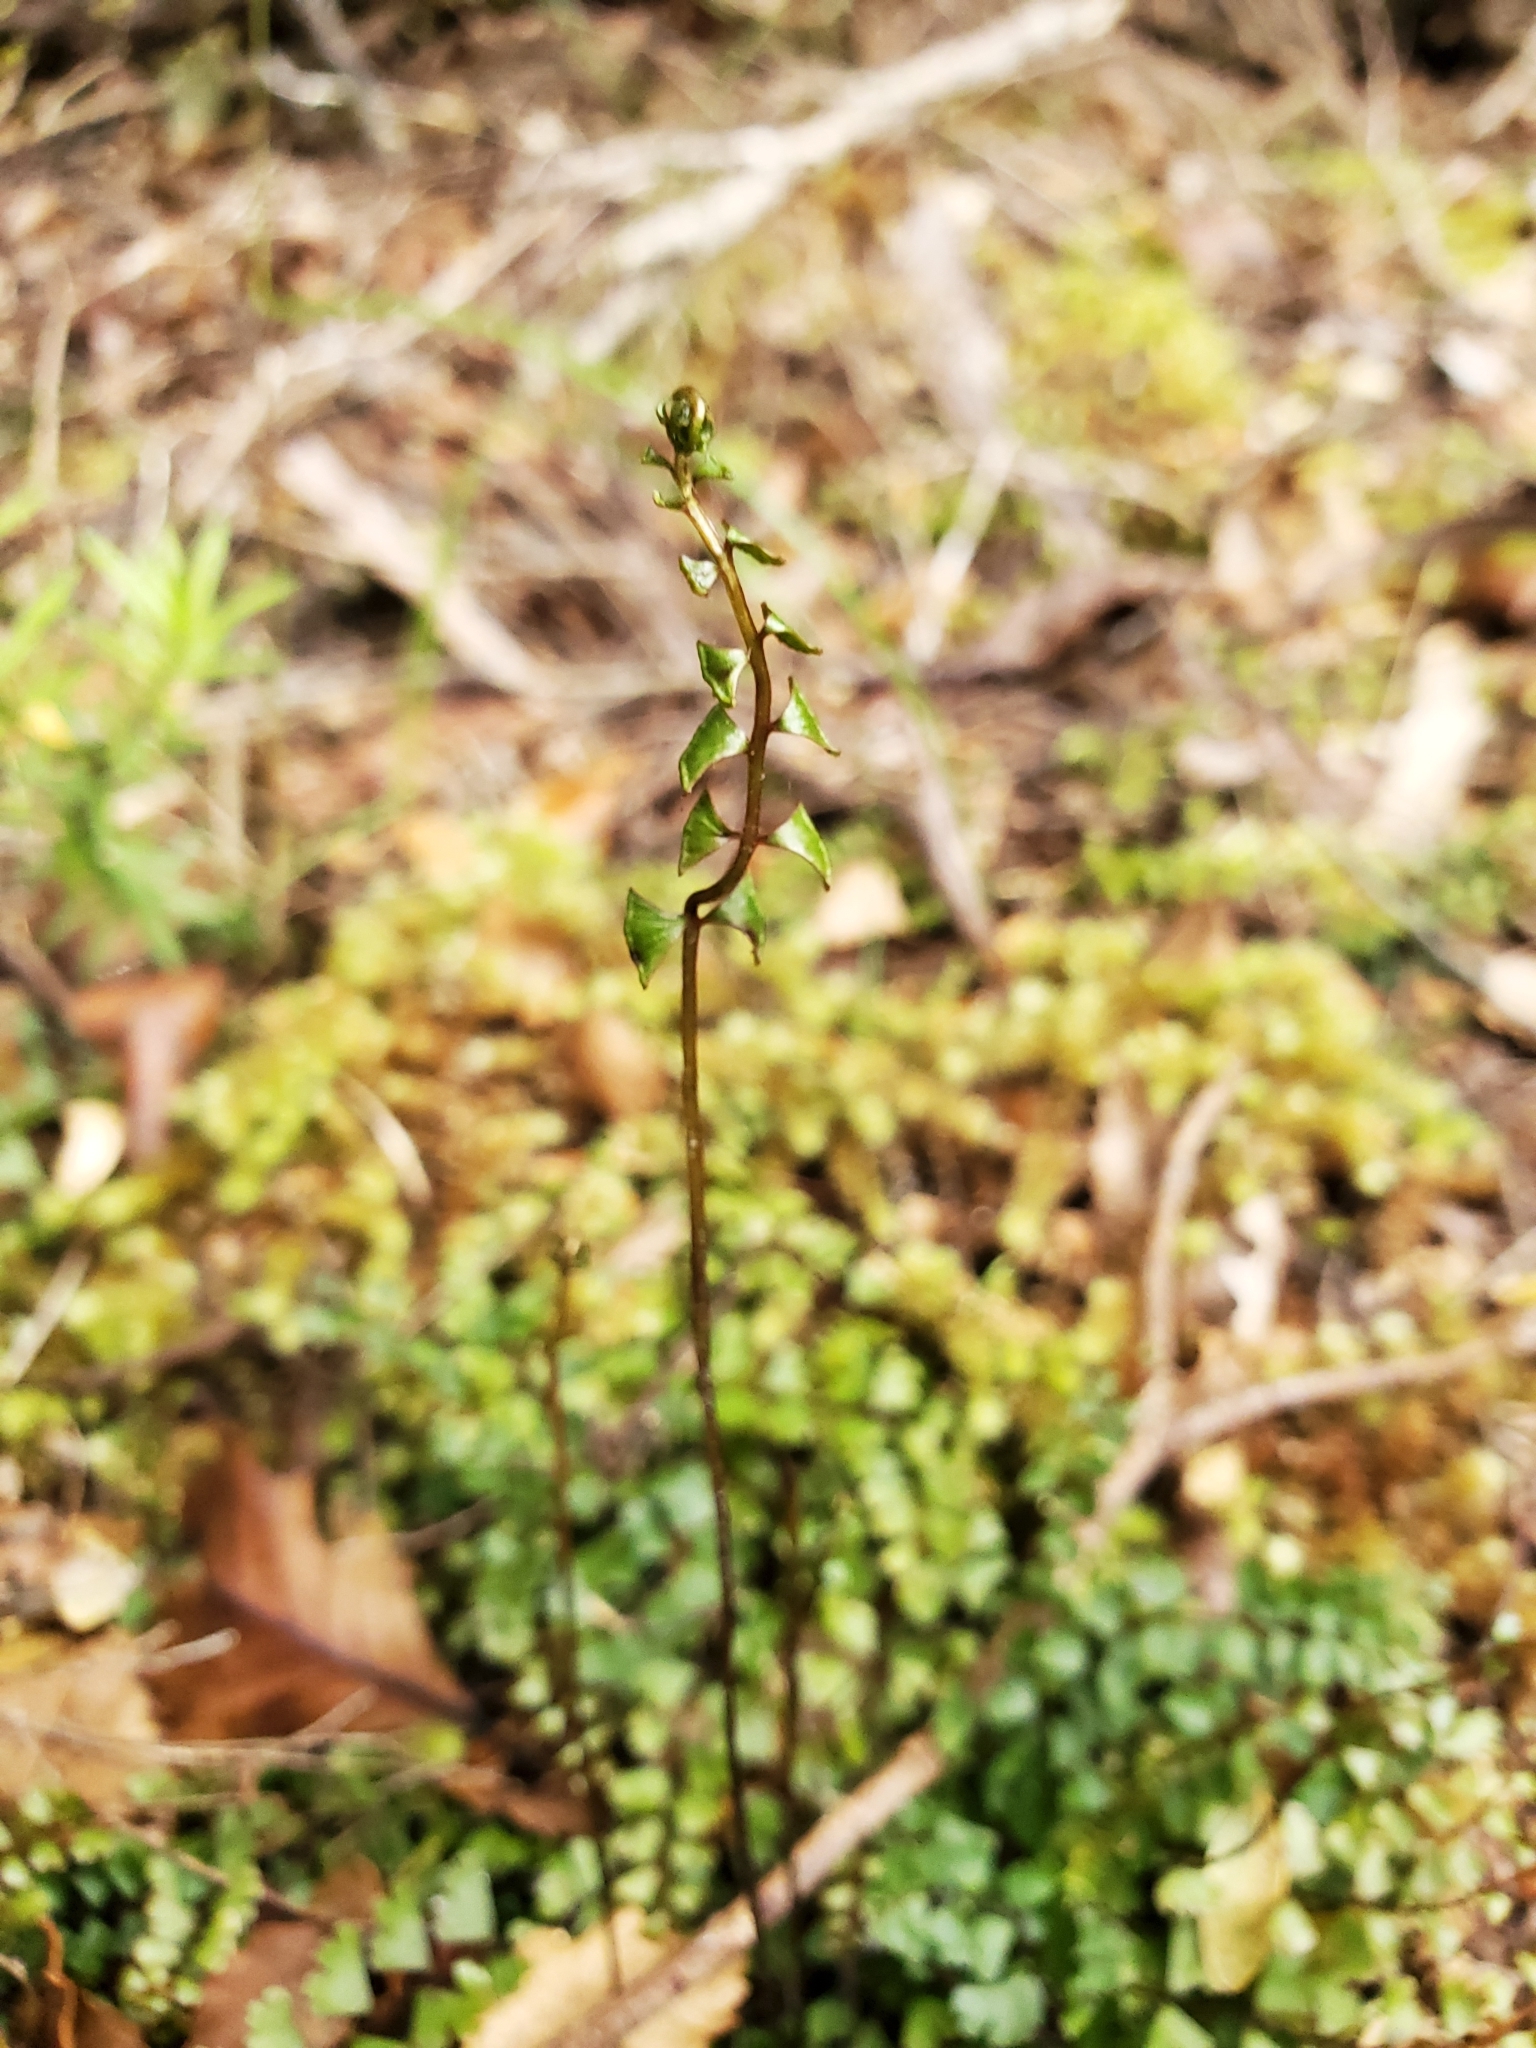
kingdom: Plantae
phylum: Tracheophyta
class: Polypodiopsida
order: Polypodiales
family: Lindsaeaceae
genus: Lindsaea
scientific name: Lindsaea linearis
